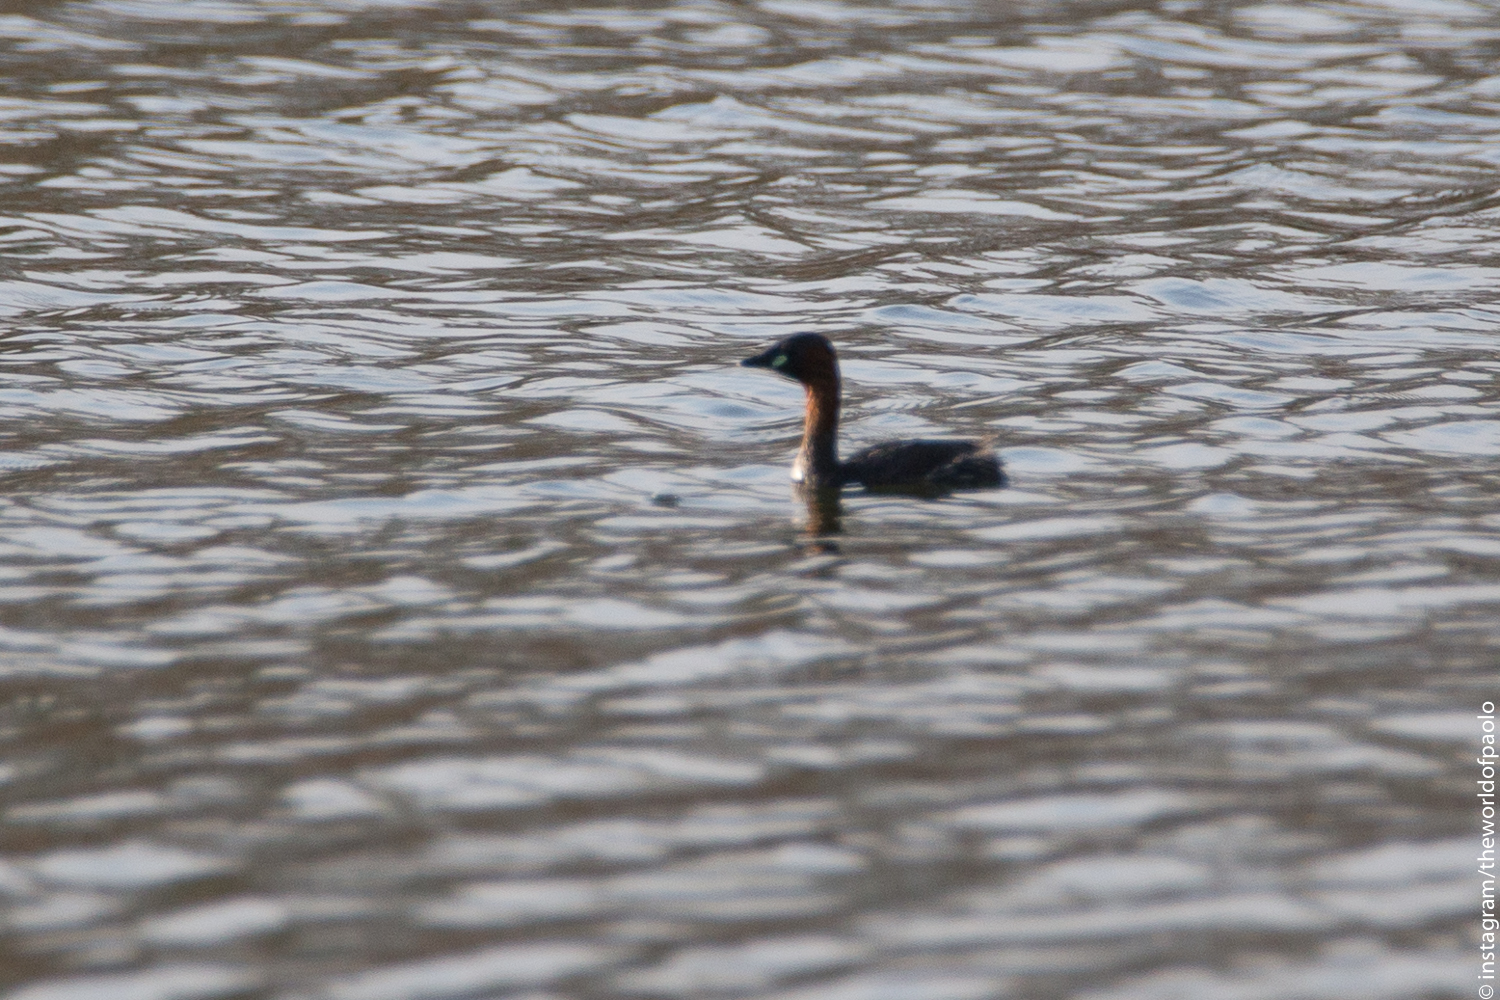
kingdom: Animalia
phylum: Chordata
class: Aves
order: Podicipediformes
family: Podicipedidae
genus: Tachybaptus
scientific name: Tachybaptus ruficollis
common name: Little grebe
